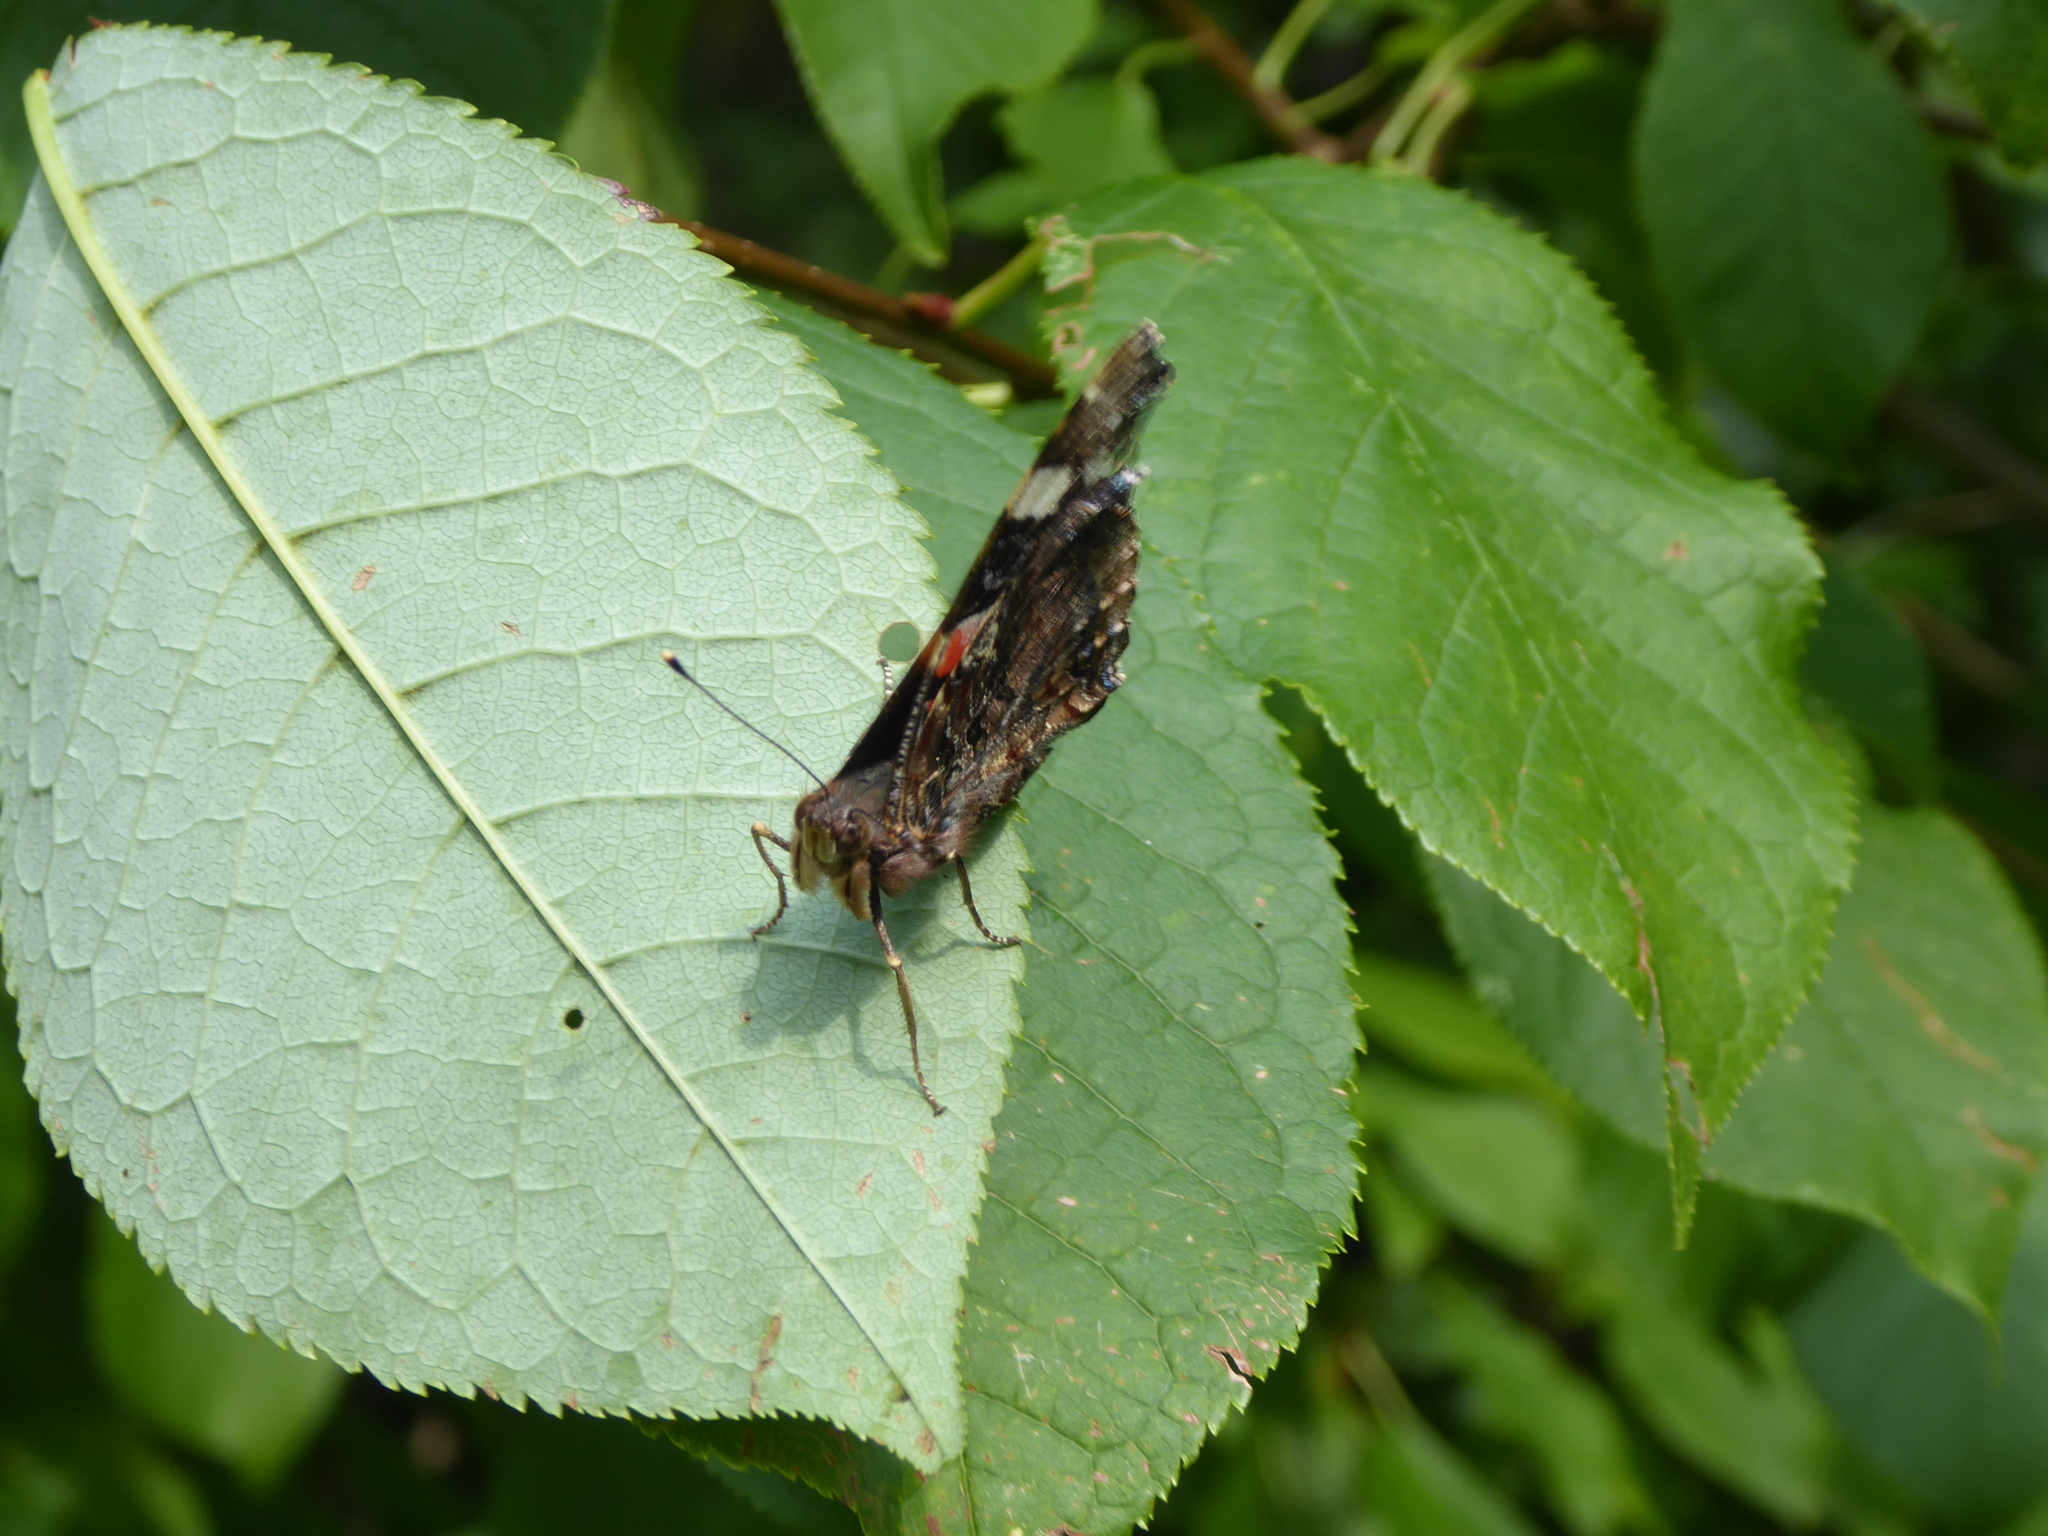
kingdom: Animalia
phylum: Arthropoda
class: Insecta
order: Lepidoptera
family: Nymphalidae
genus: Vanessa
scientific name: Vanessa atalanta
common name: Red admiral
